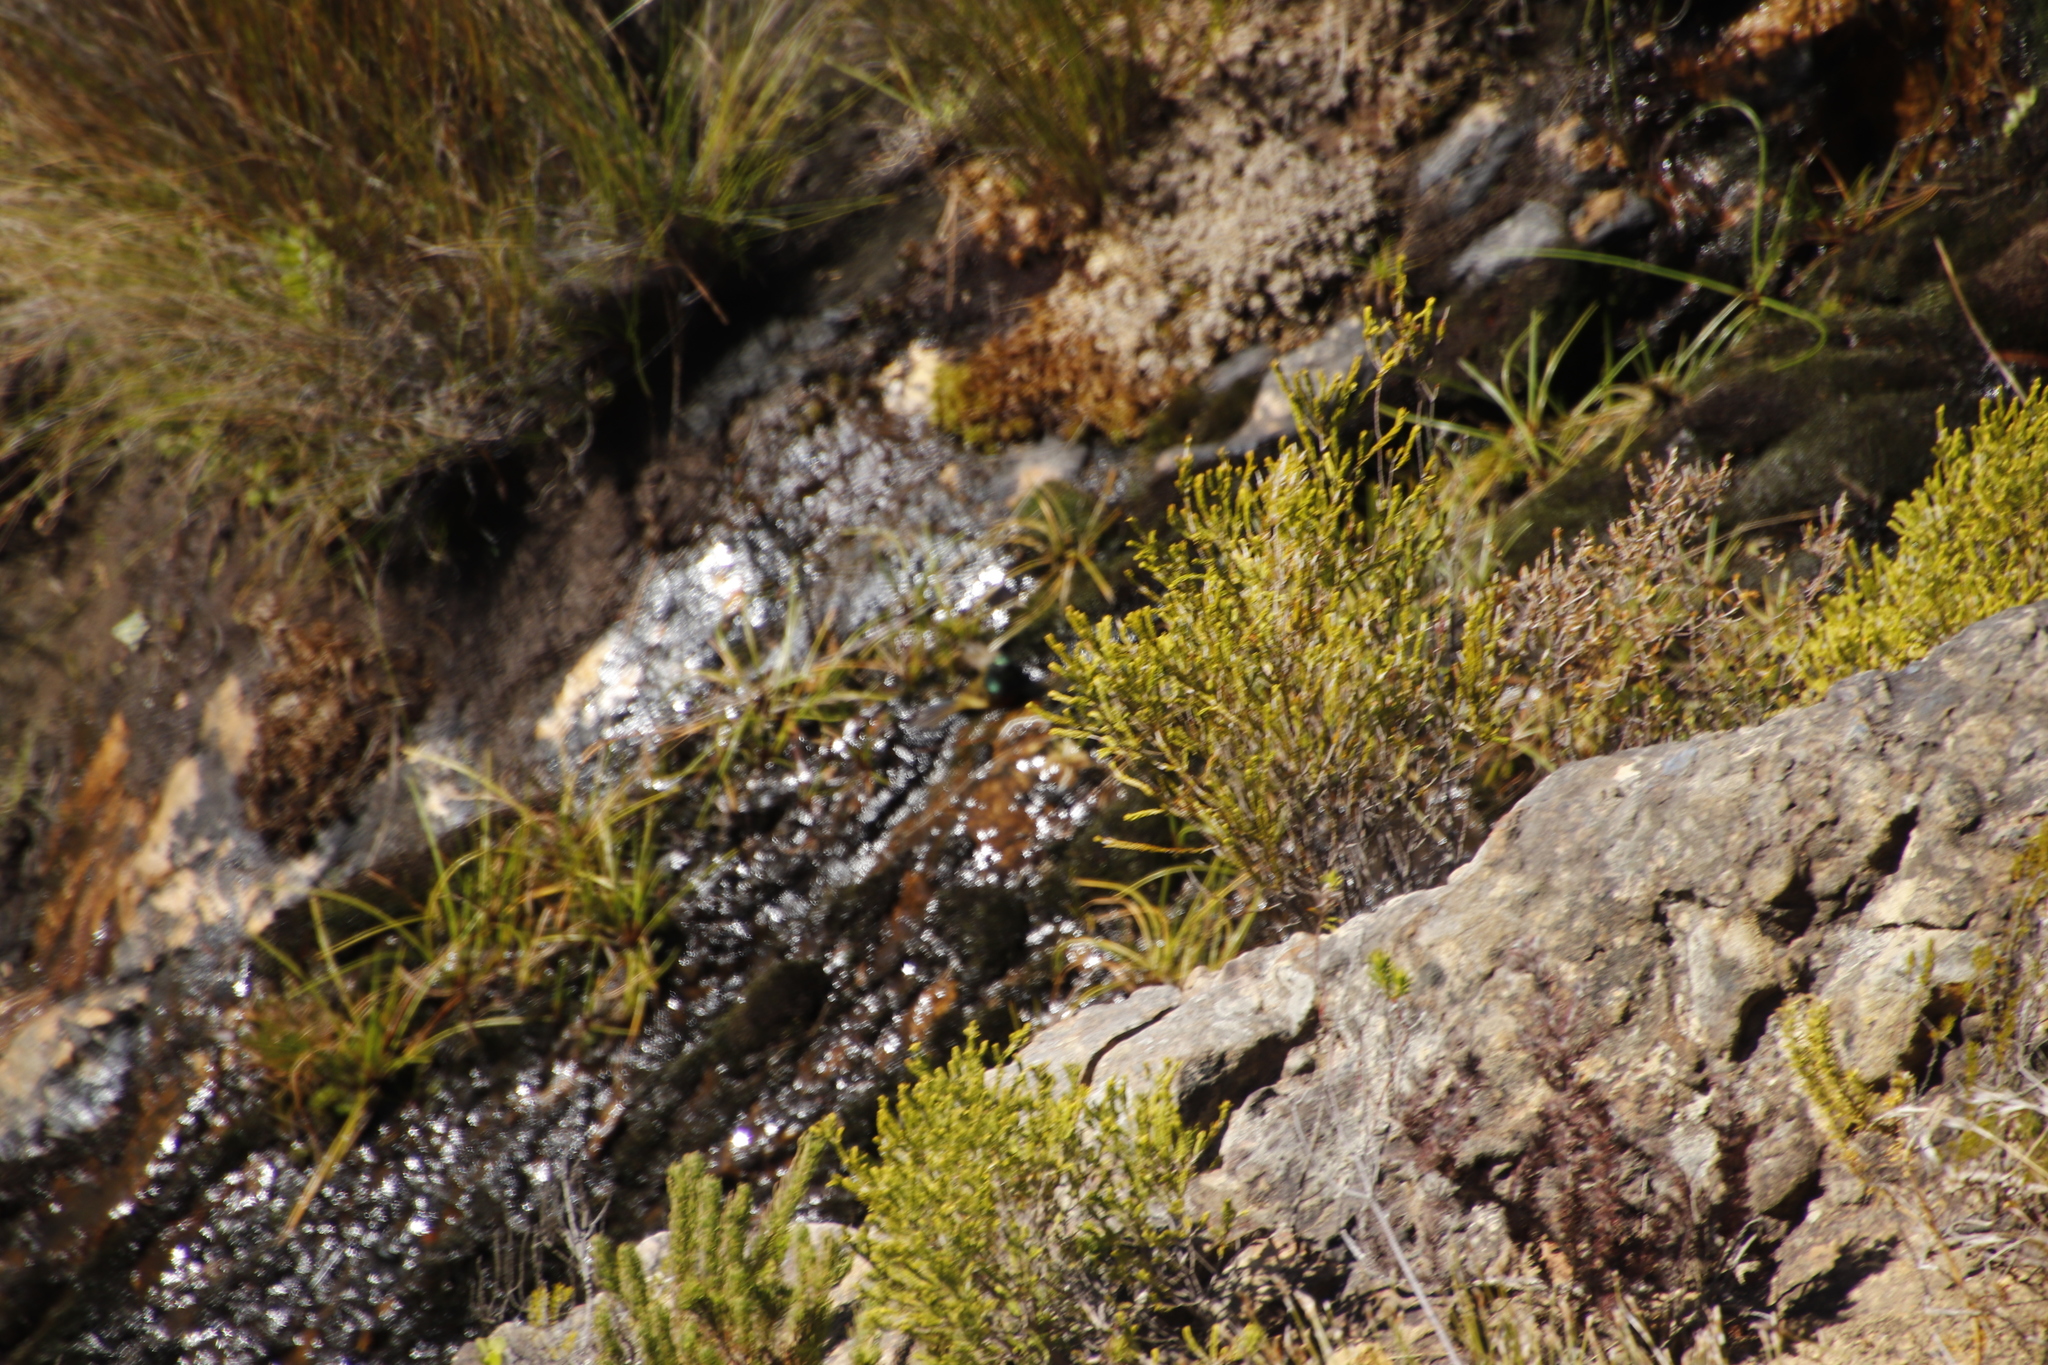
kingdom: Animalia
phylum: Chordata
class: Aves
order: Passeriformes
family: Nectariniidae
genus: Anthobaphes
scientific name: Anthobaphes violacea
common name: Orange-breasted sunbird
